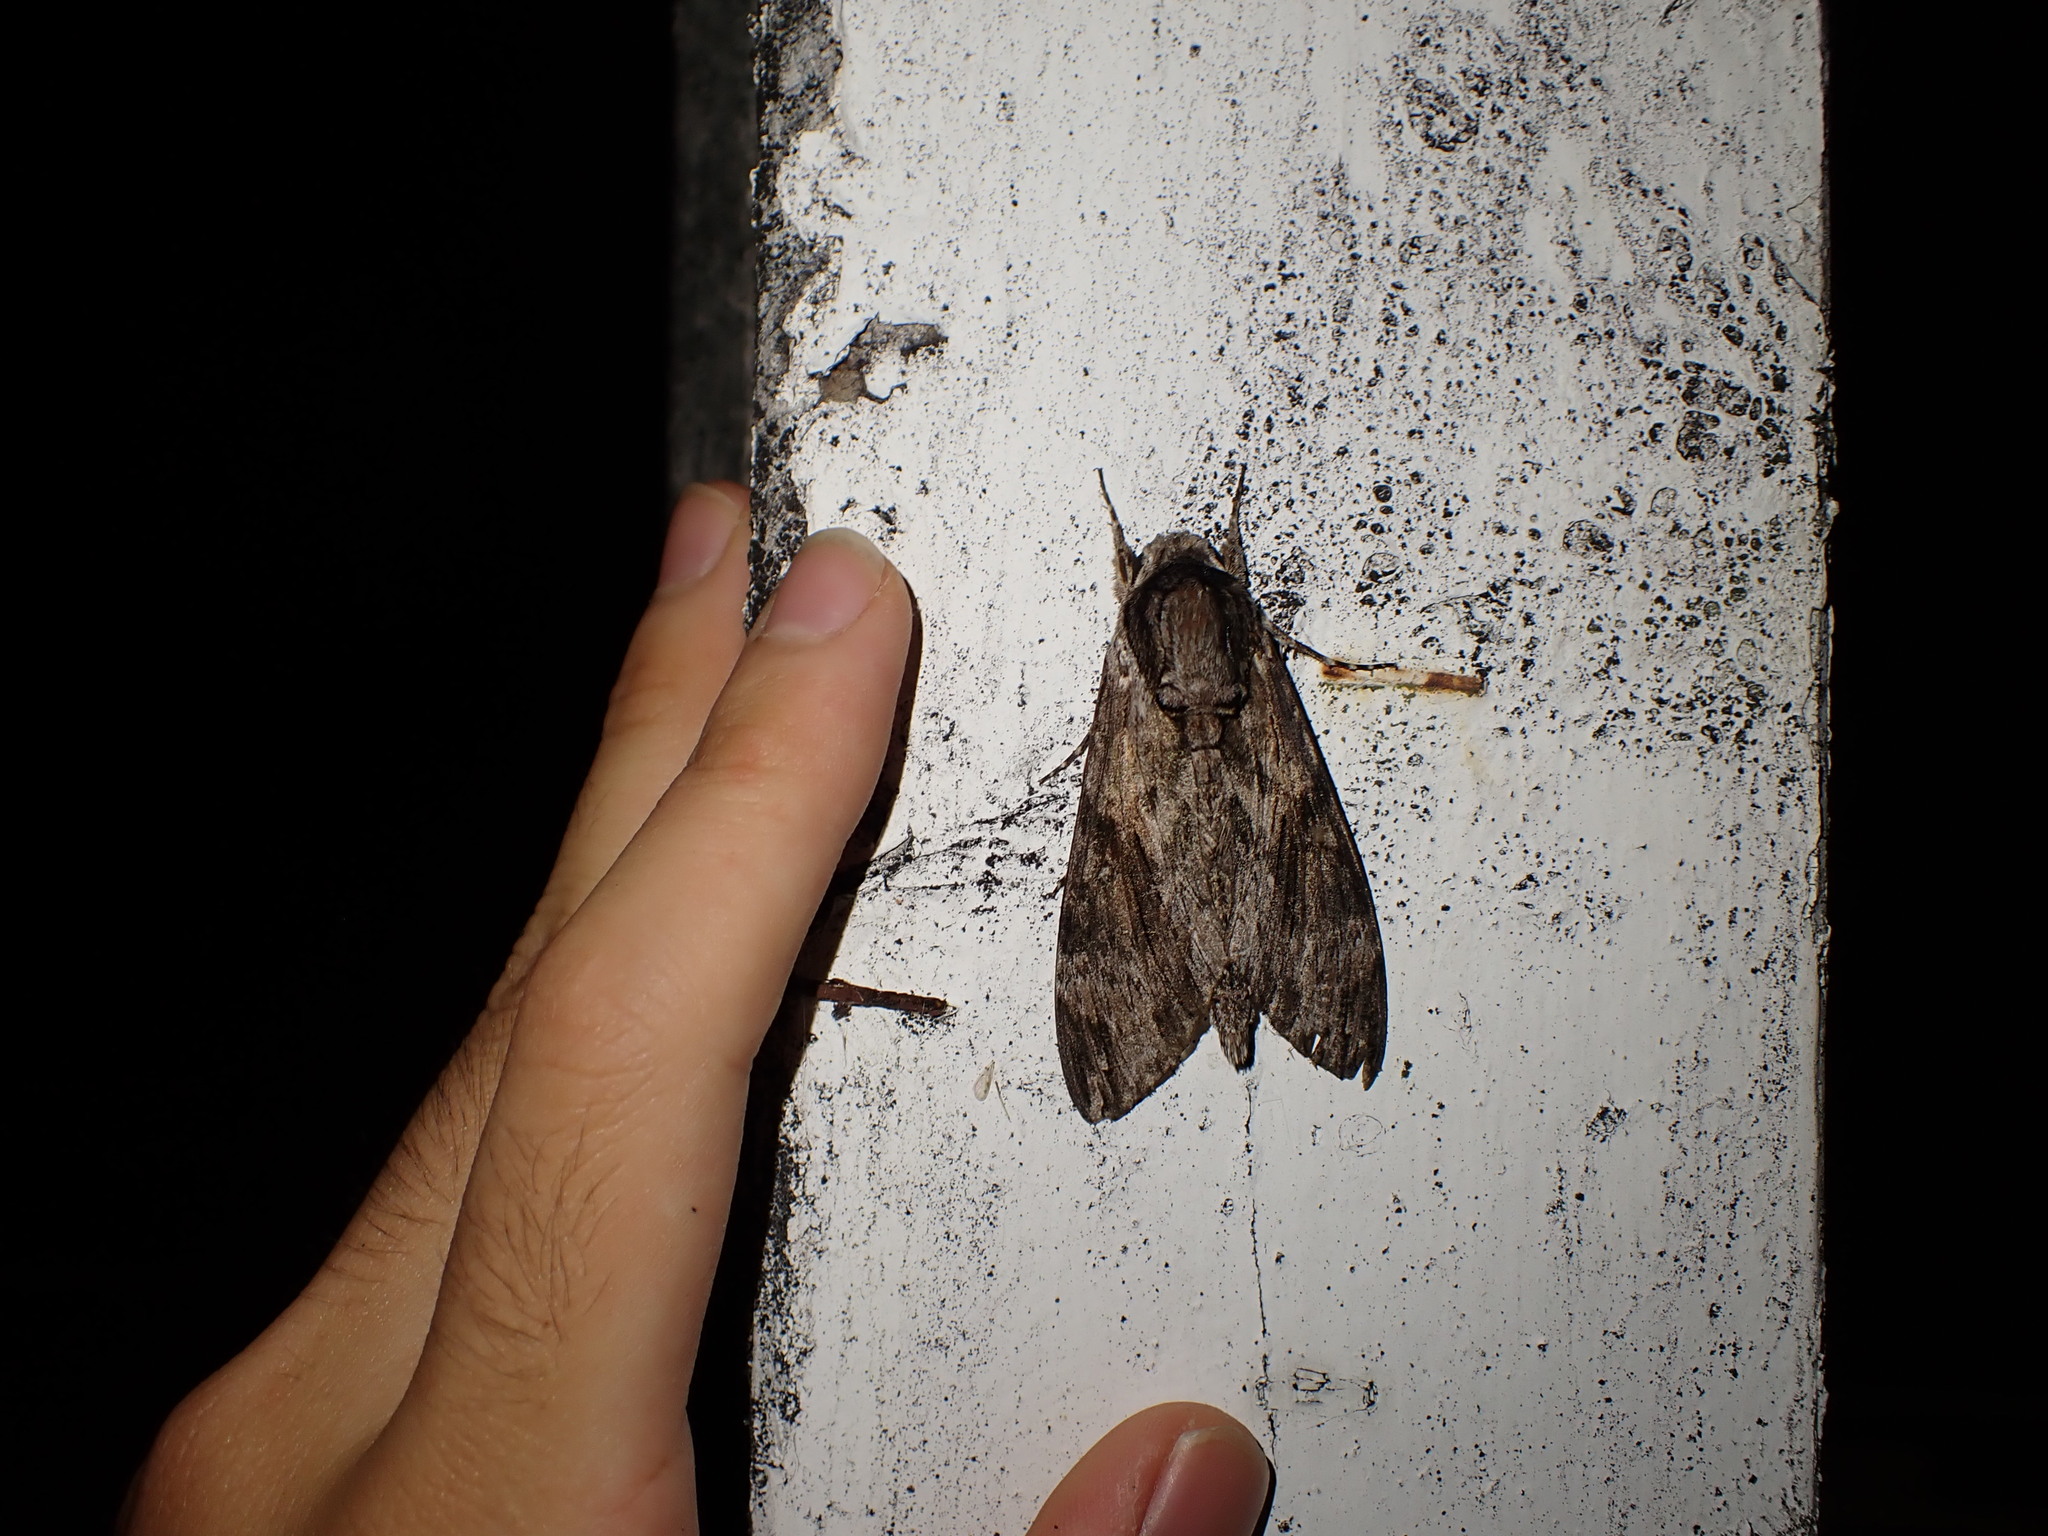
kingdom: Animalia
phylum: Arthropoda
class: Insecta
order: Lepidoptera
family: Sphingidae
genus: Agrius
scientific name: Agrius convolvuli
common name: Convolvulus hawkmoth
